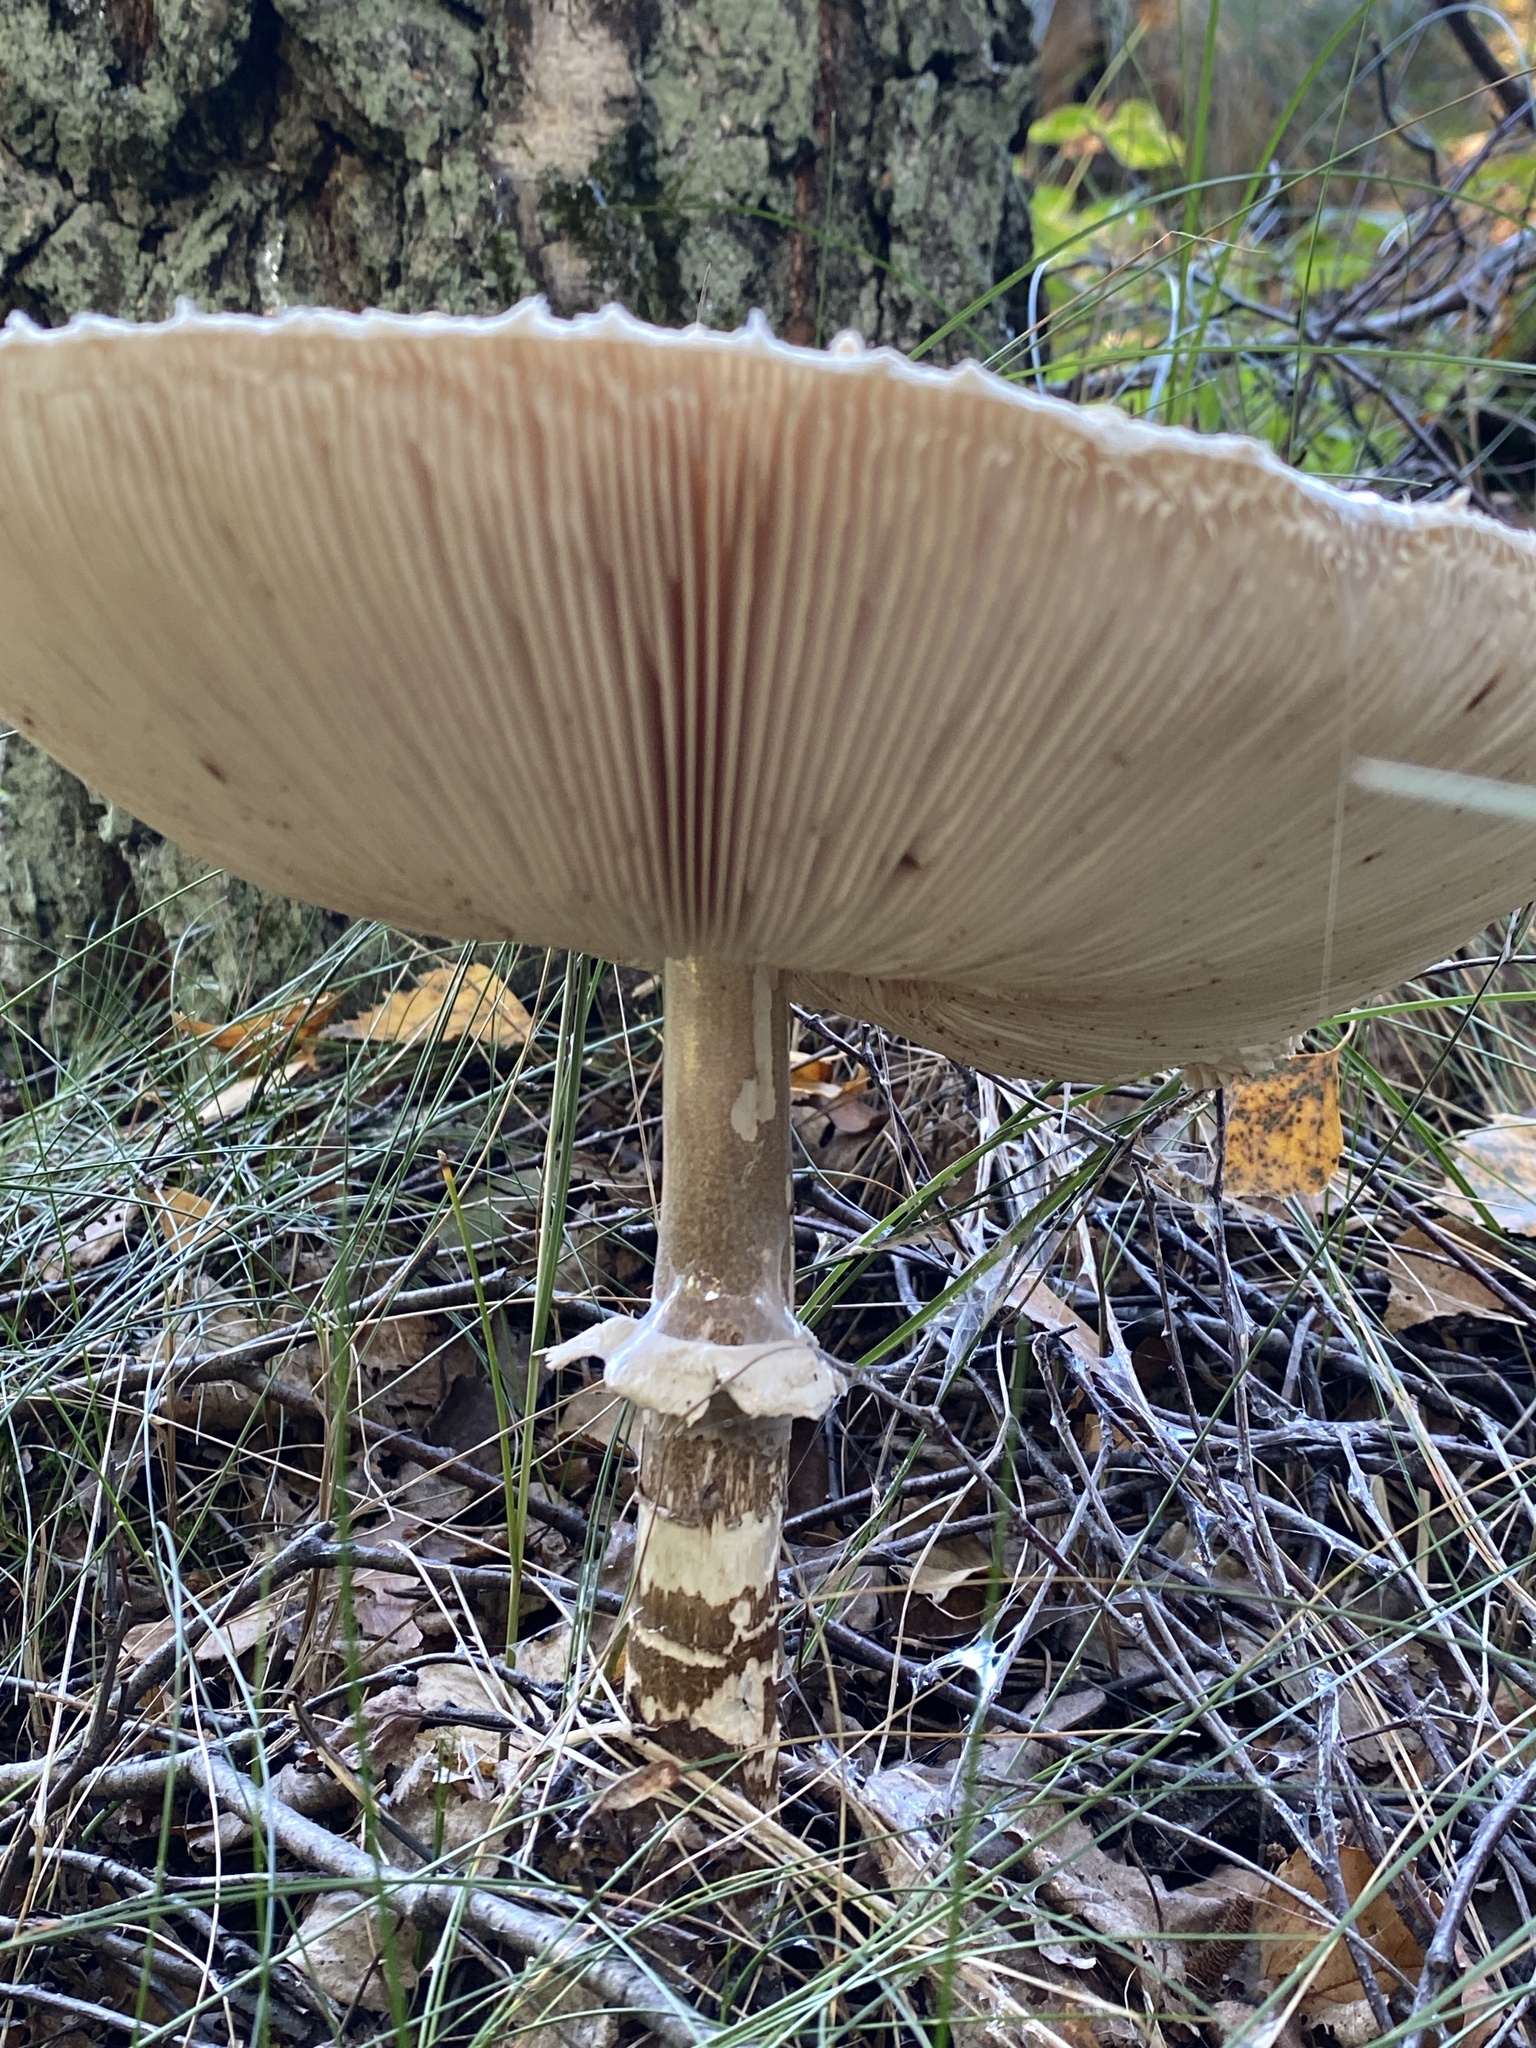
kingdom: Fungi
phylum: Basidiomycota
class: Agaricomycetes
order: Agaricales
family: Agaricaceae
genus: Macrolepiota
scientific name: Macrolepiota procera
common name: Parasol
